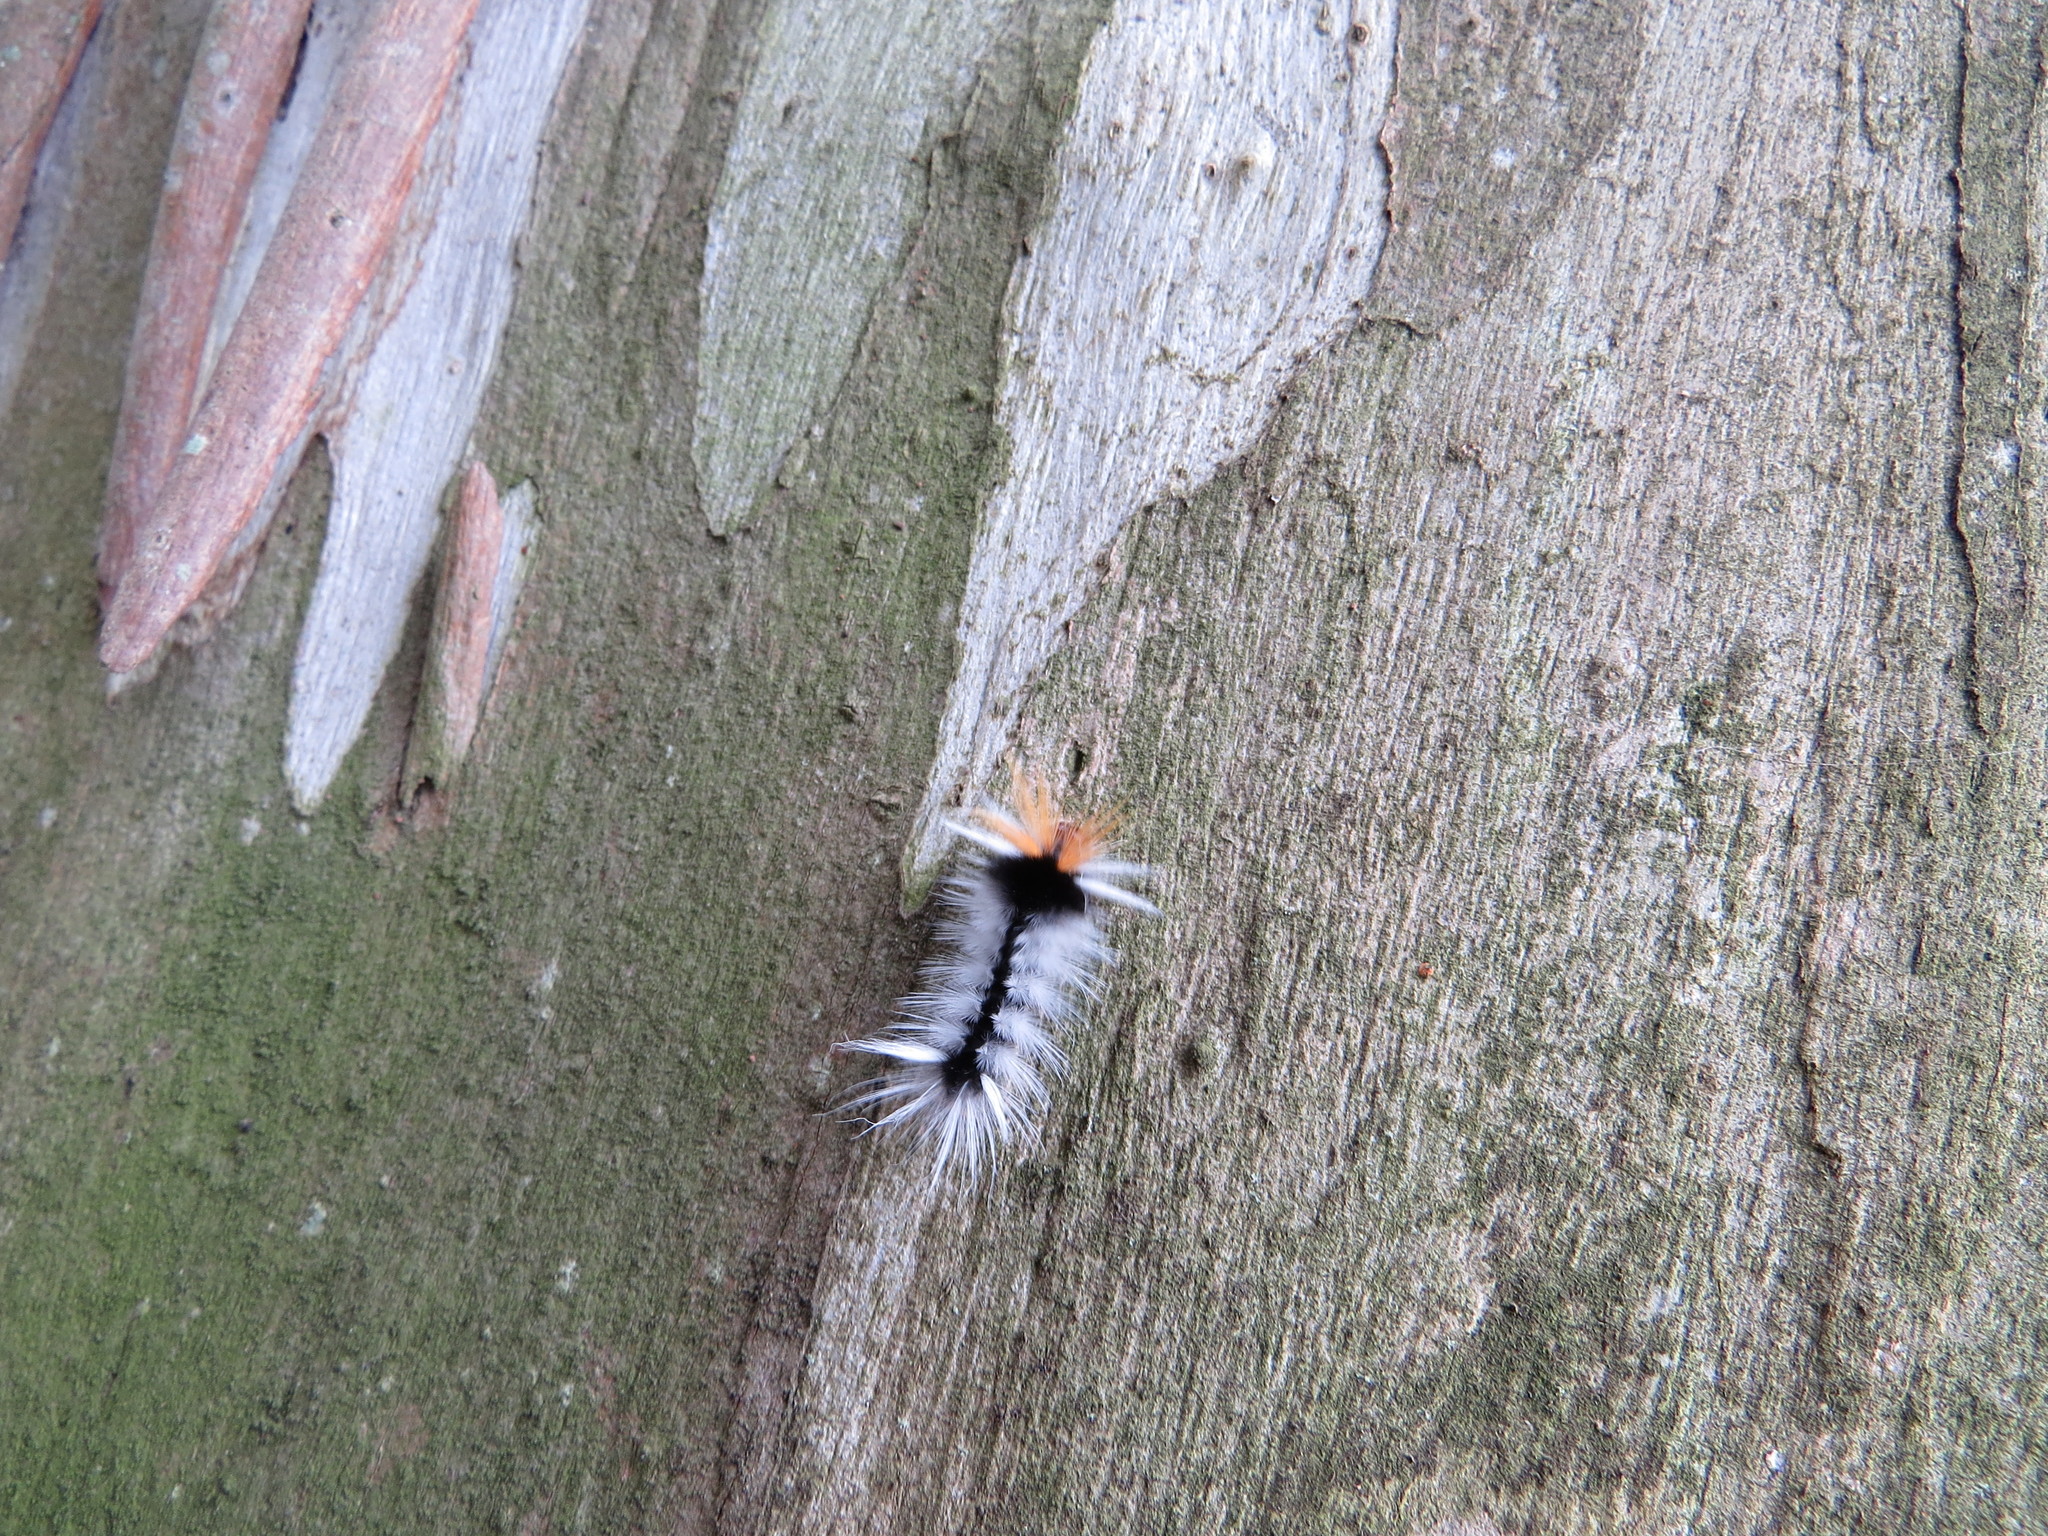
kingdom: Animalia
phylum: Arthropoda
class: Insecta
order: Lepidoptera
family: Erebidae
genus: Halysidota
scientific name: Halysidota ruscheweyhi
